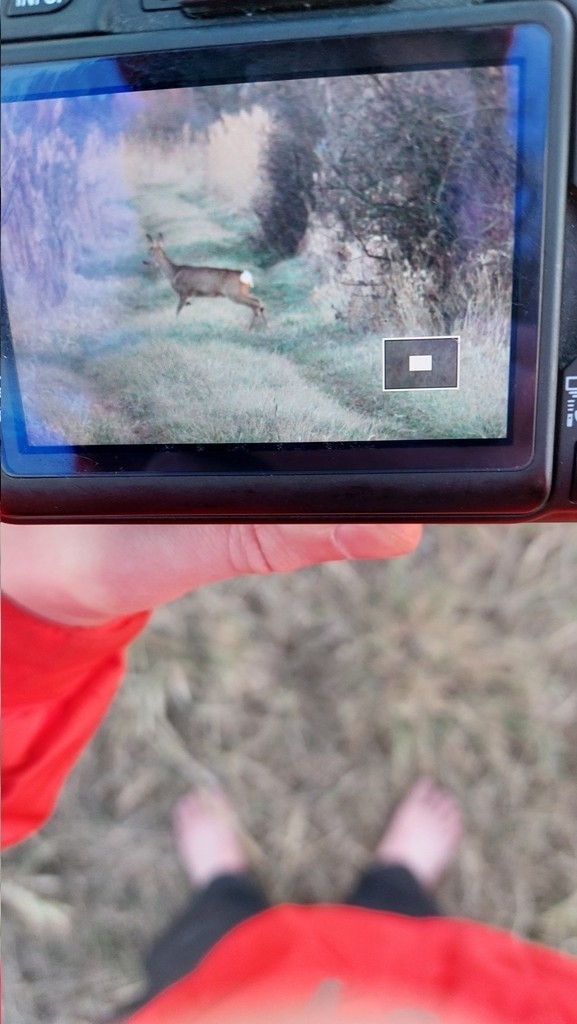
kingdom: Animalia
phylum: Chordata
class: Mammalia
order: Artiodactyla
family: Cervidae
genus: Capreolus
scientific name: Capreolus capreolus
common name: Western roe deer
